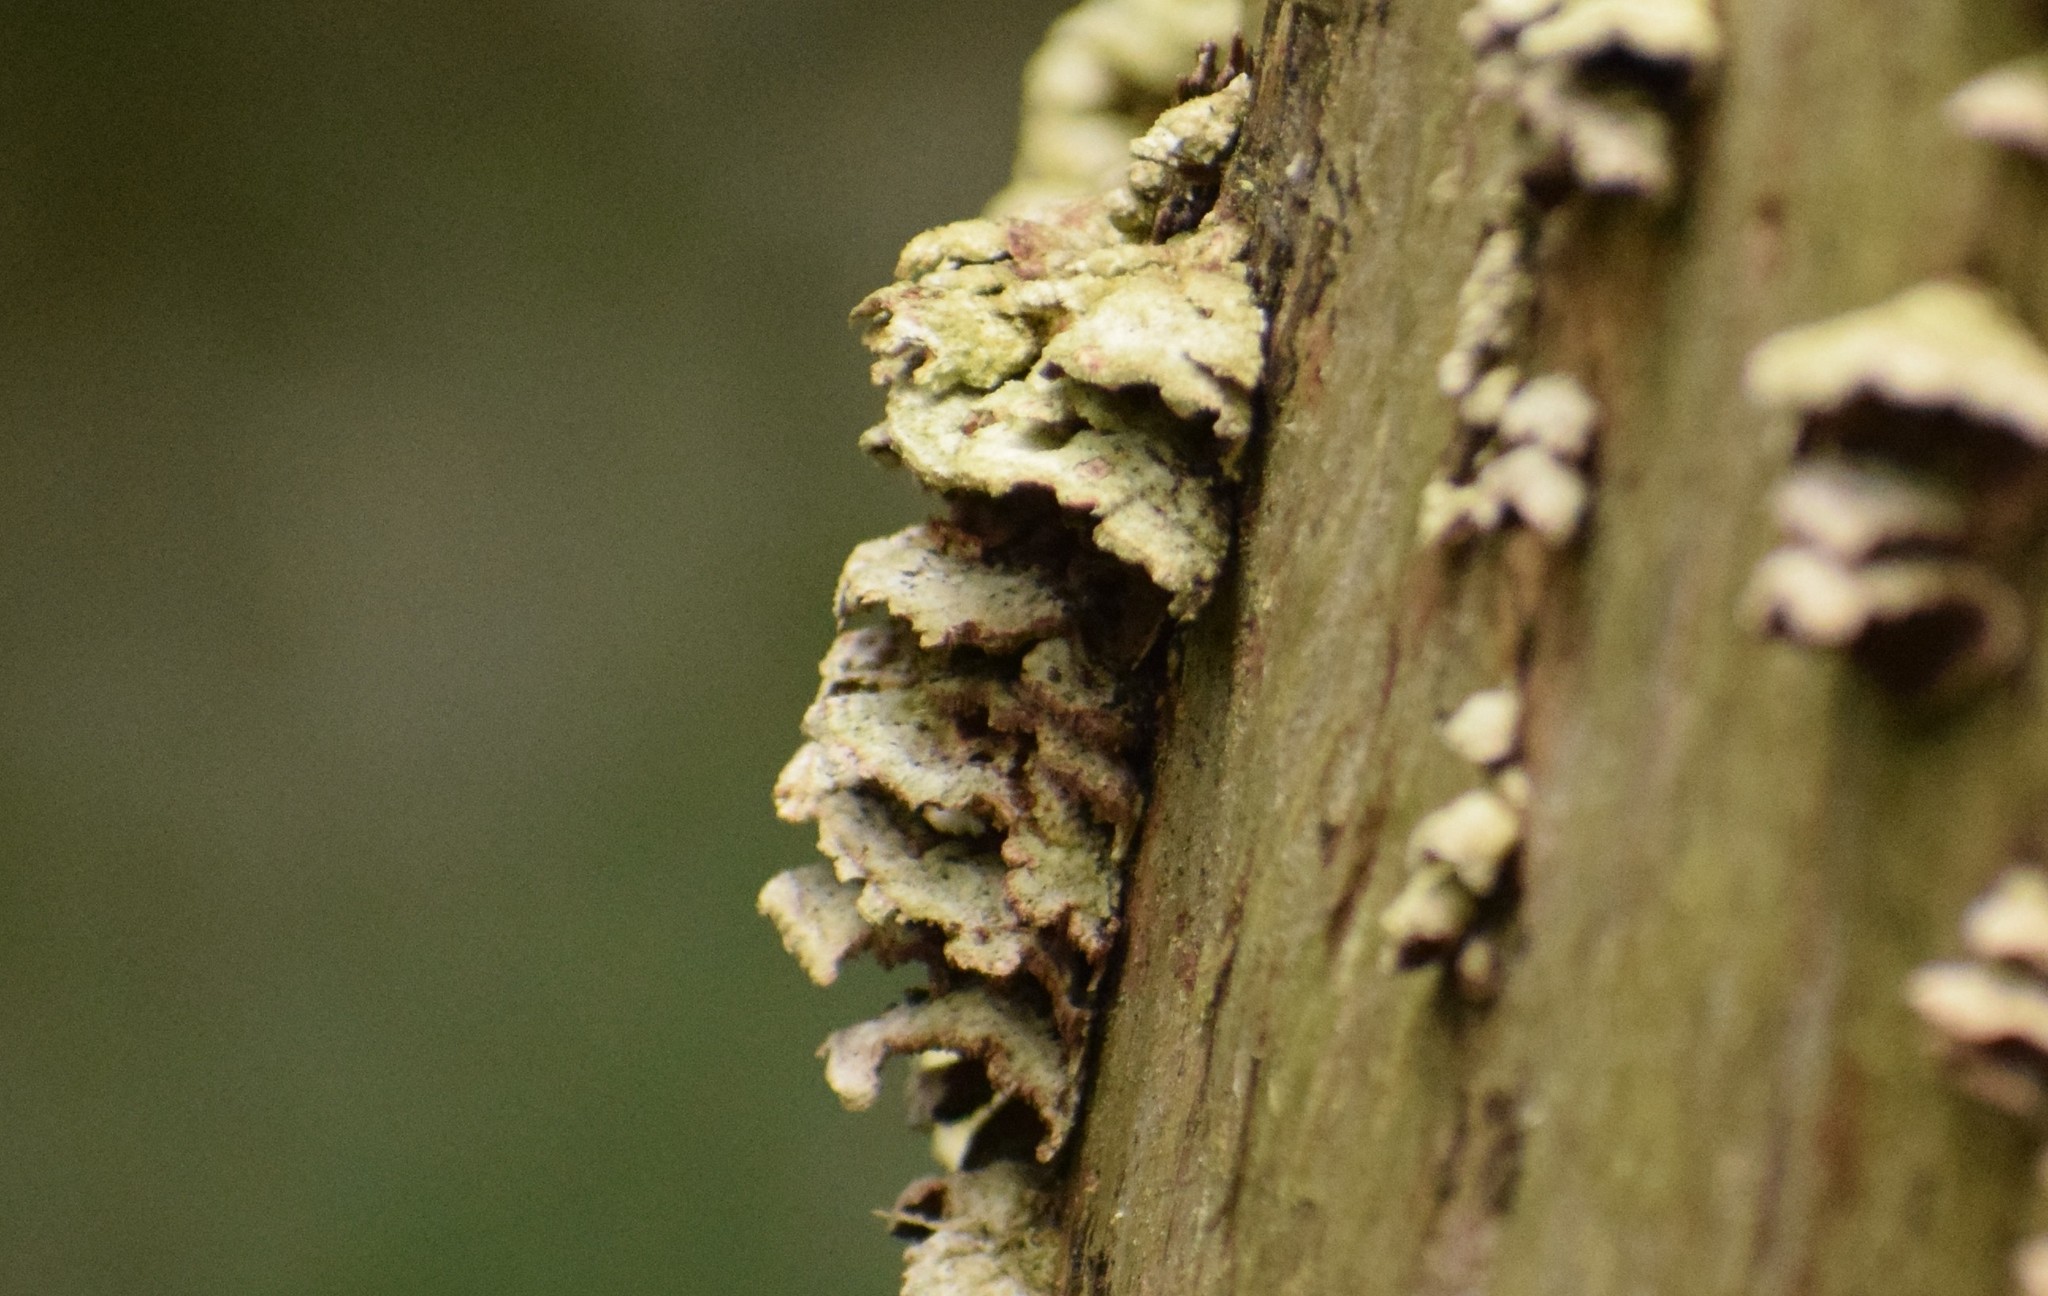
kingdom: Fungi
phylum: Basidiomycota
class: Agaricomycetes
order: Agaricales
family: Schizophyllaceae
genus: Schizophyllum
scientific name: Schizophyllum commune
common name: Common porecrust
